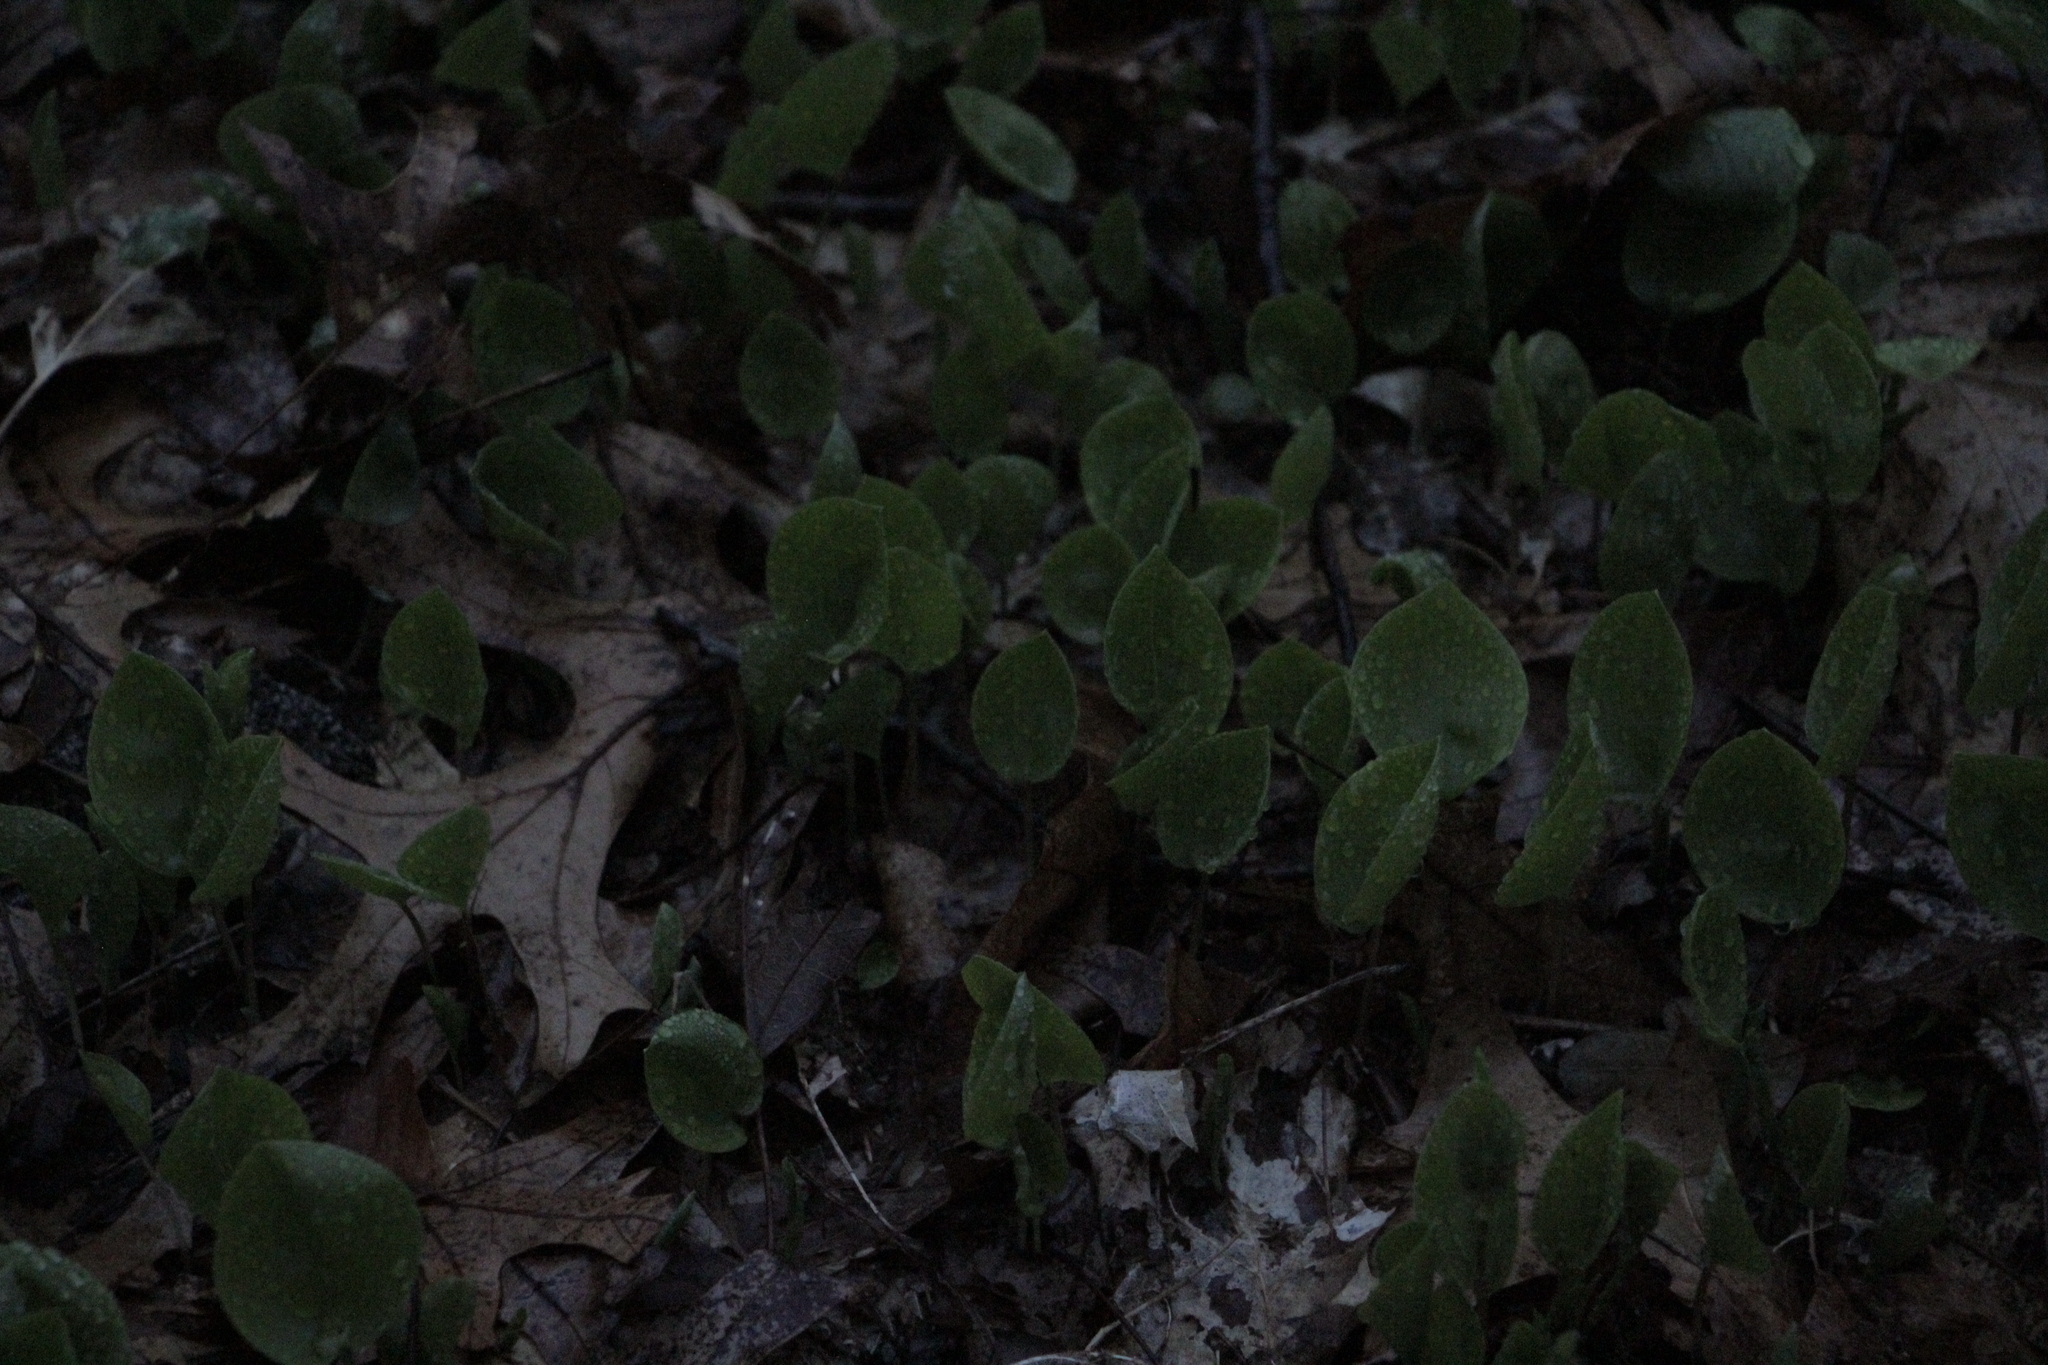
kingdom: Plantae
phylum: Tracheophyta
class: Liliopsida
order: Asparagales
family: Asparagaceae
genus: Maianthemum
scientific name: Maianthemum canadense
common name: False lily-of-the-valley
